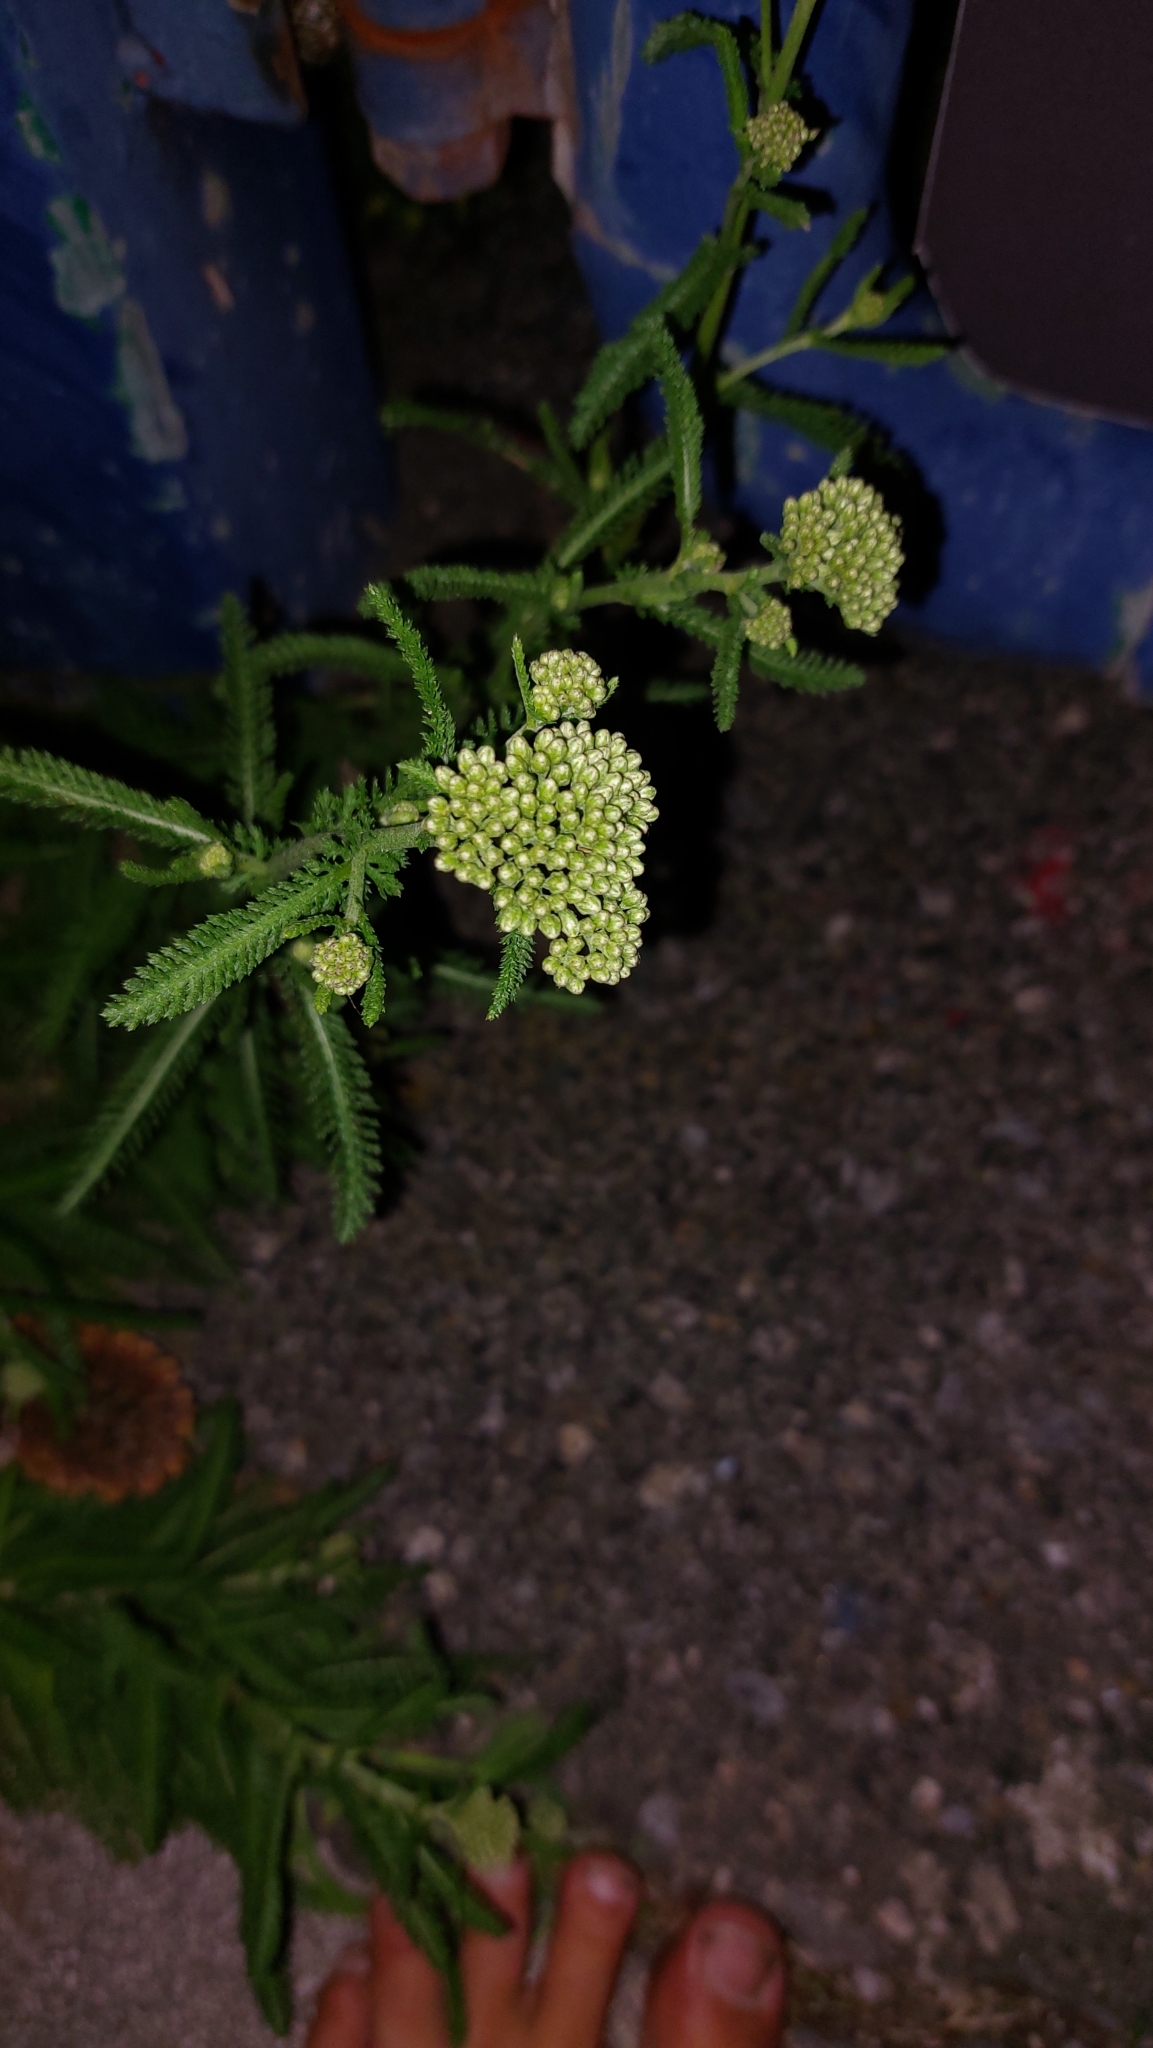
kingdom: Plantae
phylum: Tracheophyta
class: Magnoliopsida
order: Asterales
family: Asteraceae
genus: Achillea
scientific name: Achillea millefolium
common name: Yarrow
